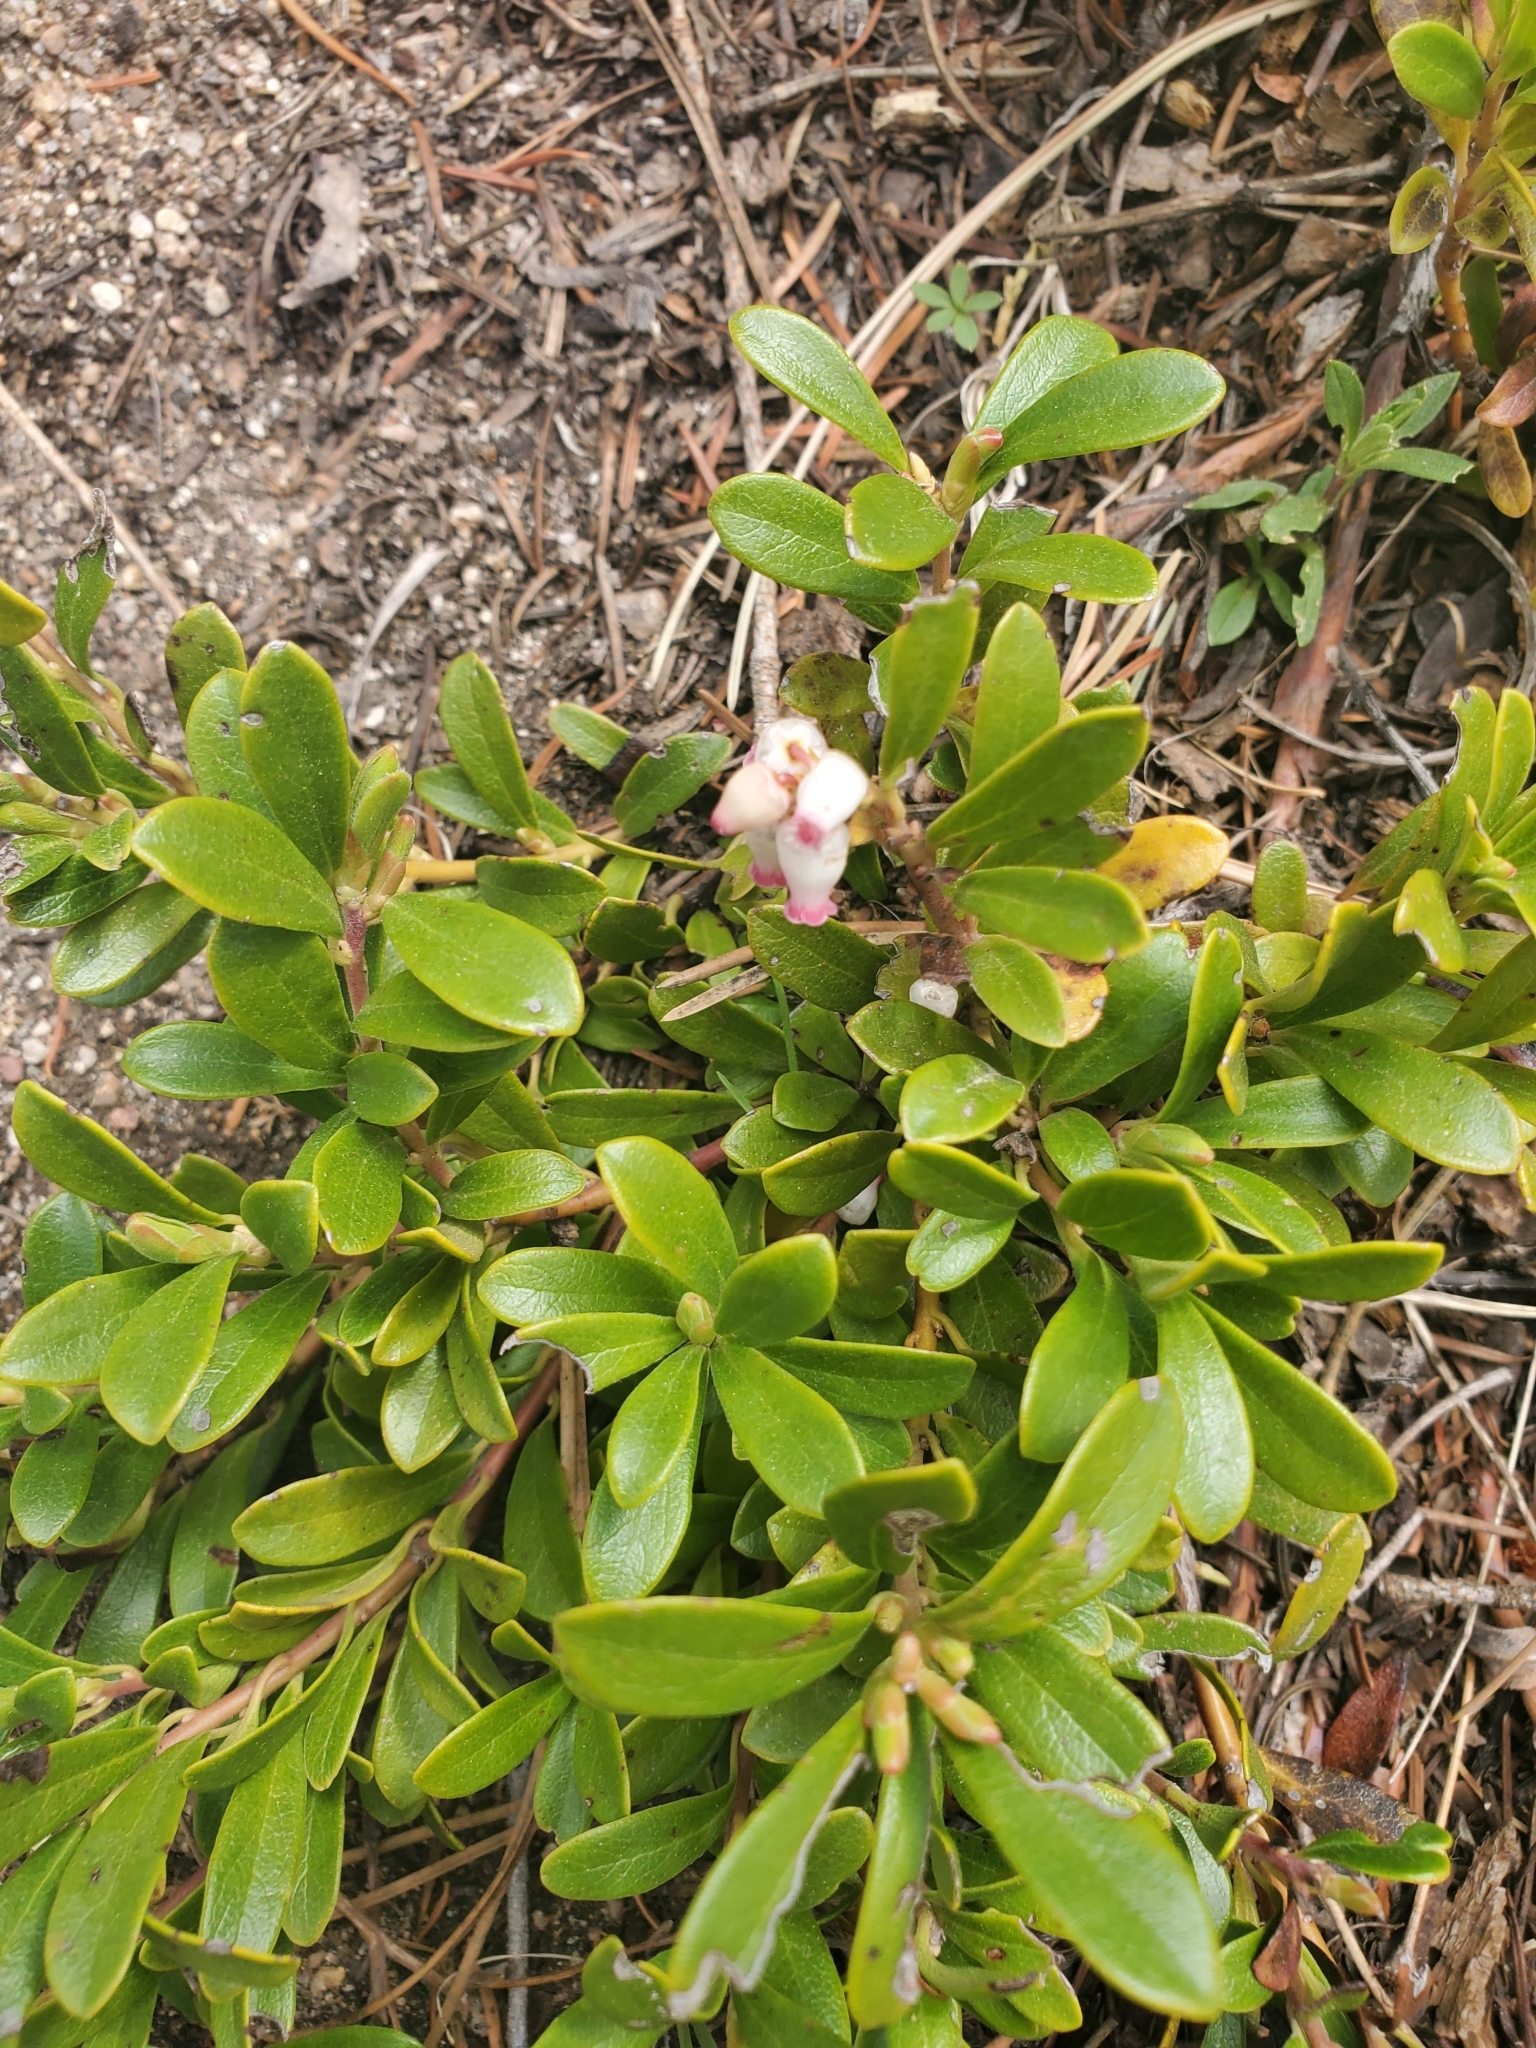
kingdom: Plantae
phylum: Tracheophyta
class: Magnoliopsida
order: Ericales
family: Ericaceae
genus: Arctostaphylos
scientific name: Arctostaphylos uva-ursi
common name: Bearberry
